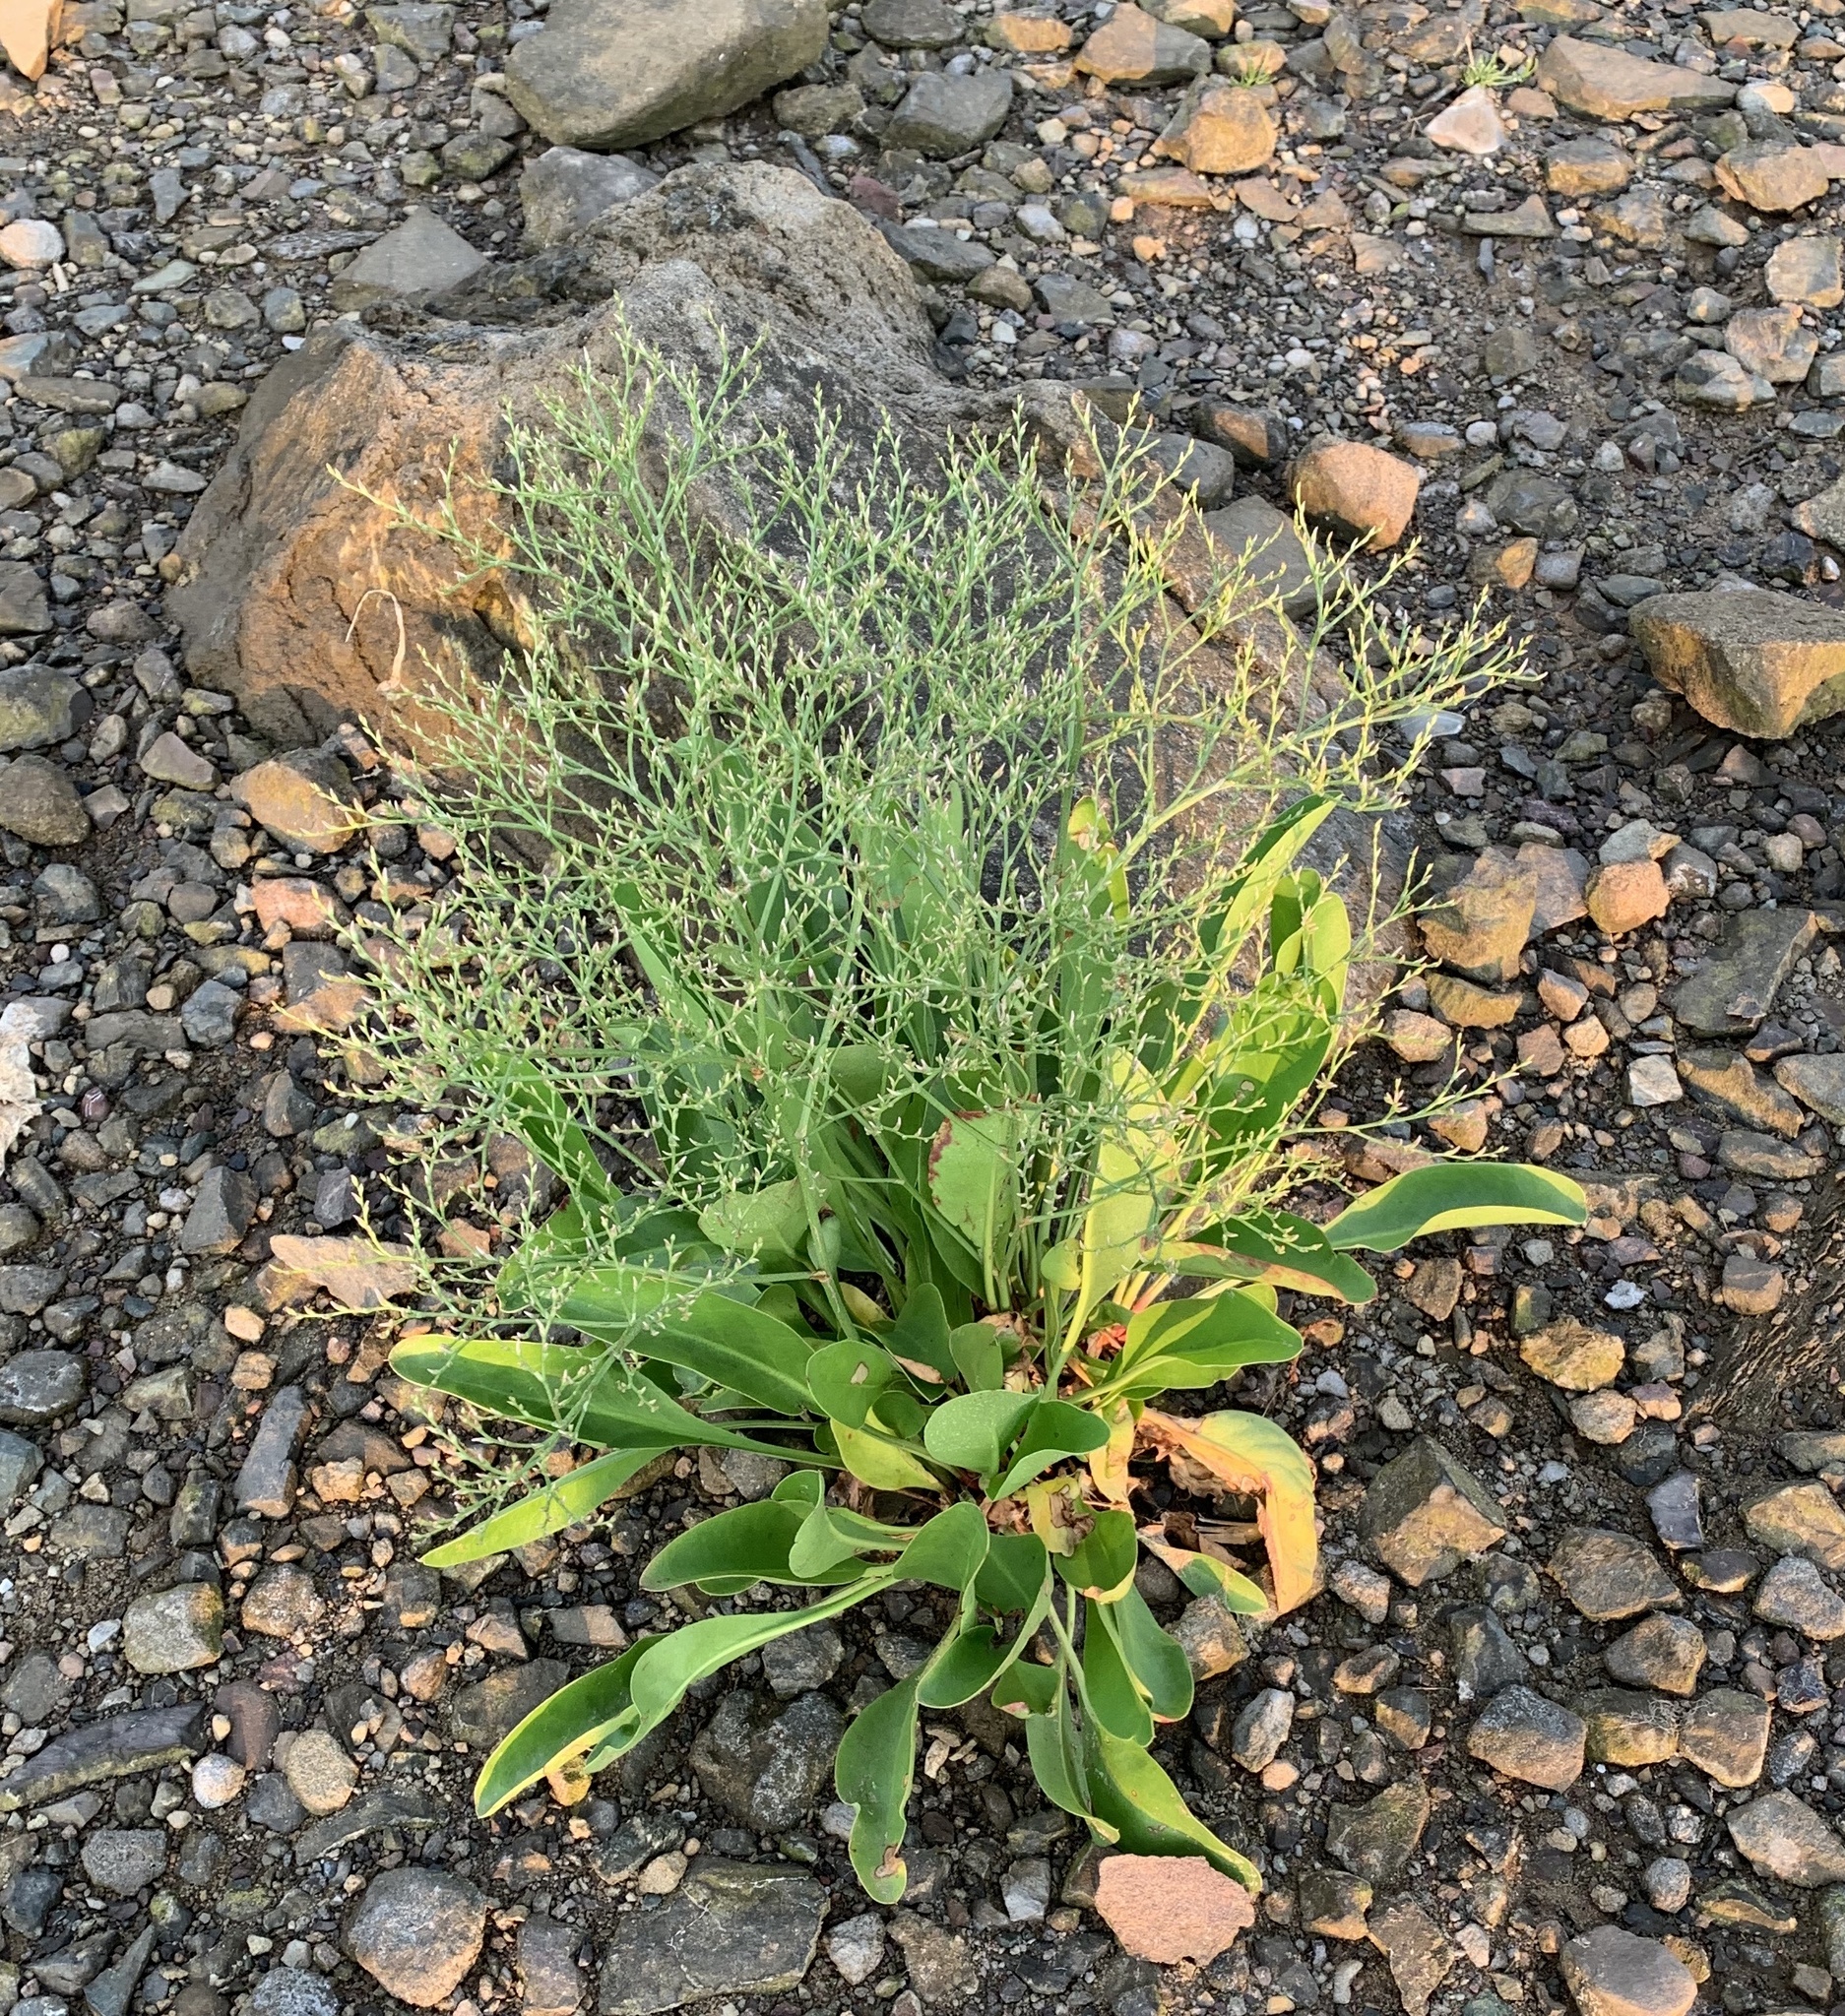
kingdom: Plantae
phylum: Tracheophyta
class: Magnoliopsida
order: Caryophyllales
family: Plumbaginaceae
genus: Limonium
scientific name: Limonium carolinianum
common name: Carolina sea lavender
